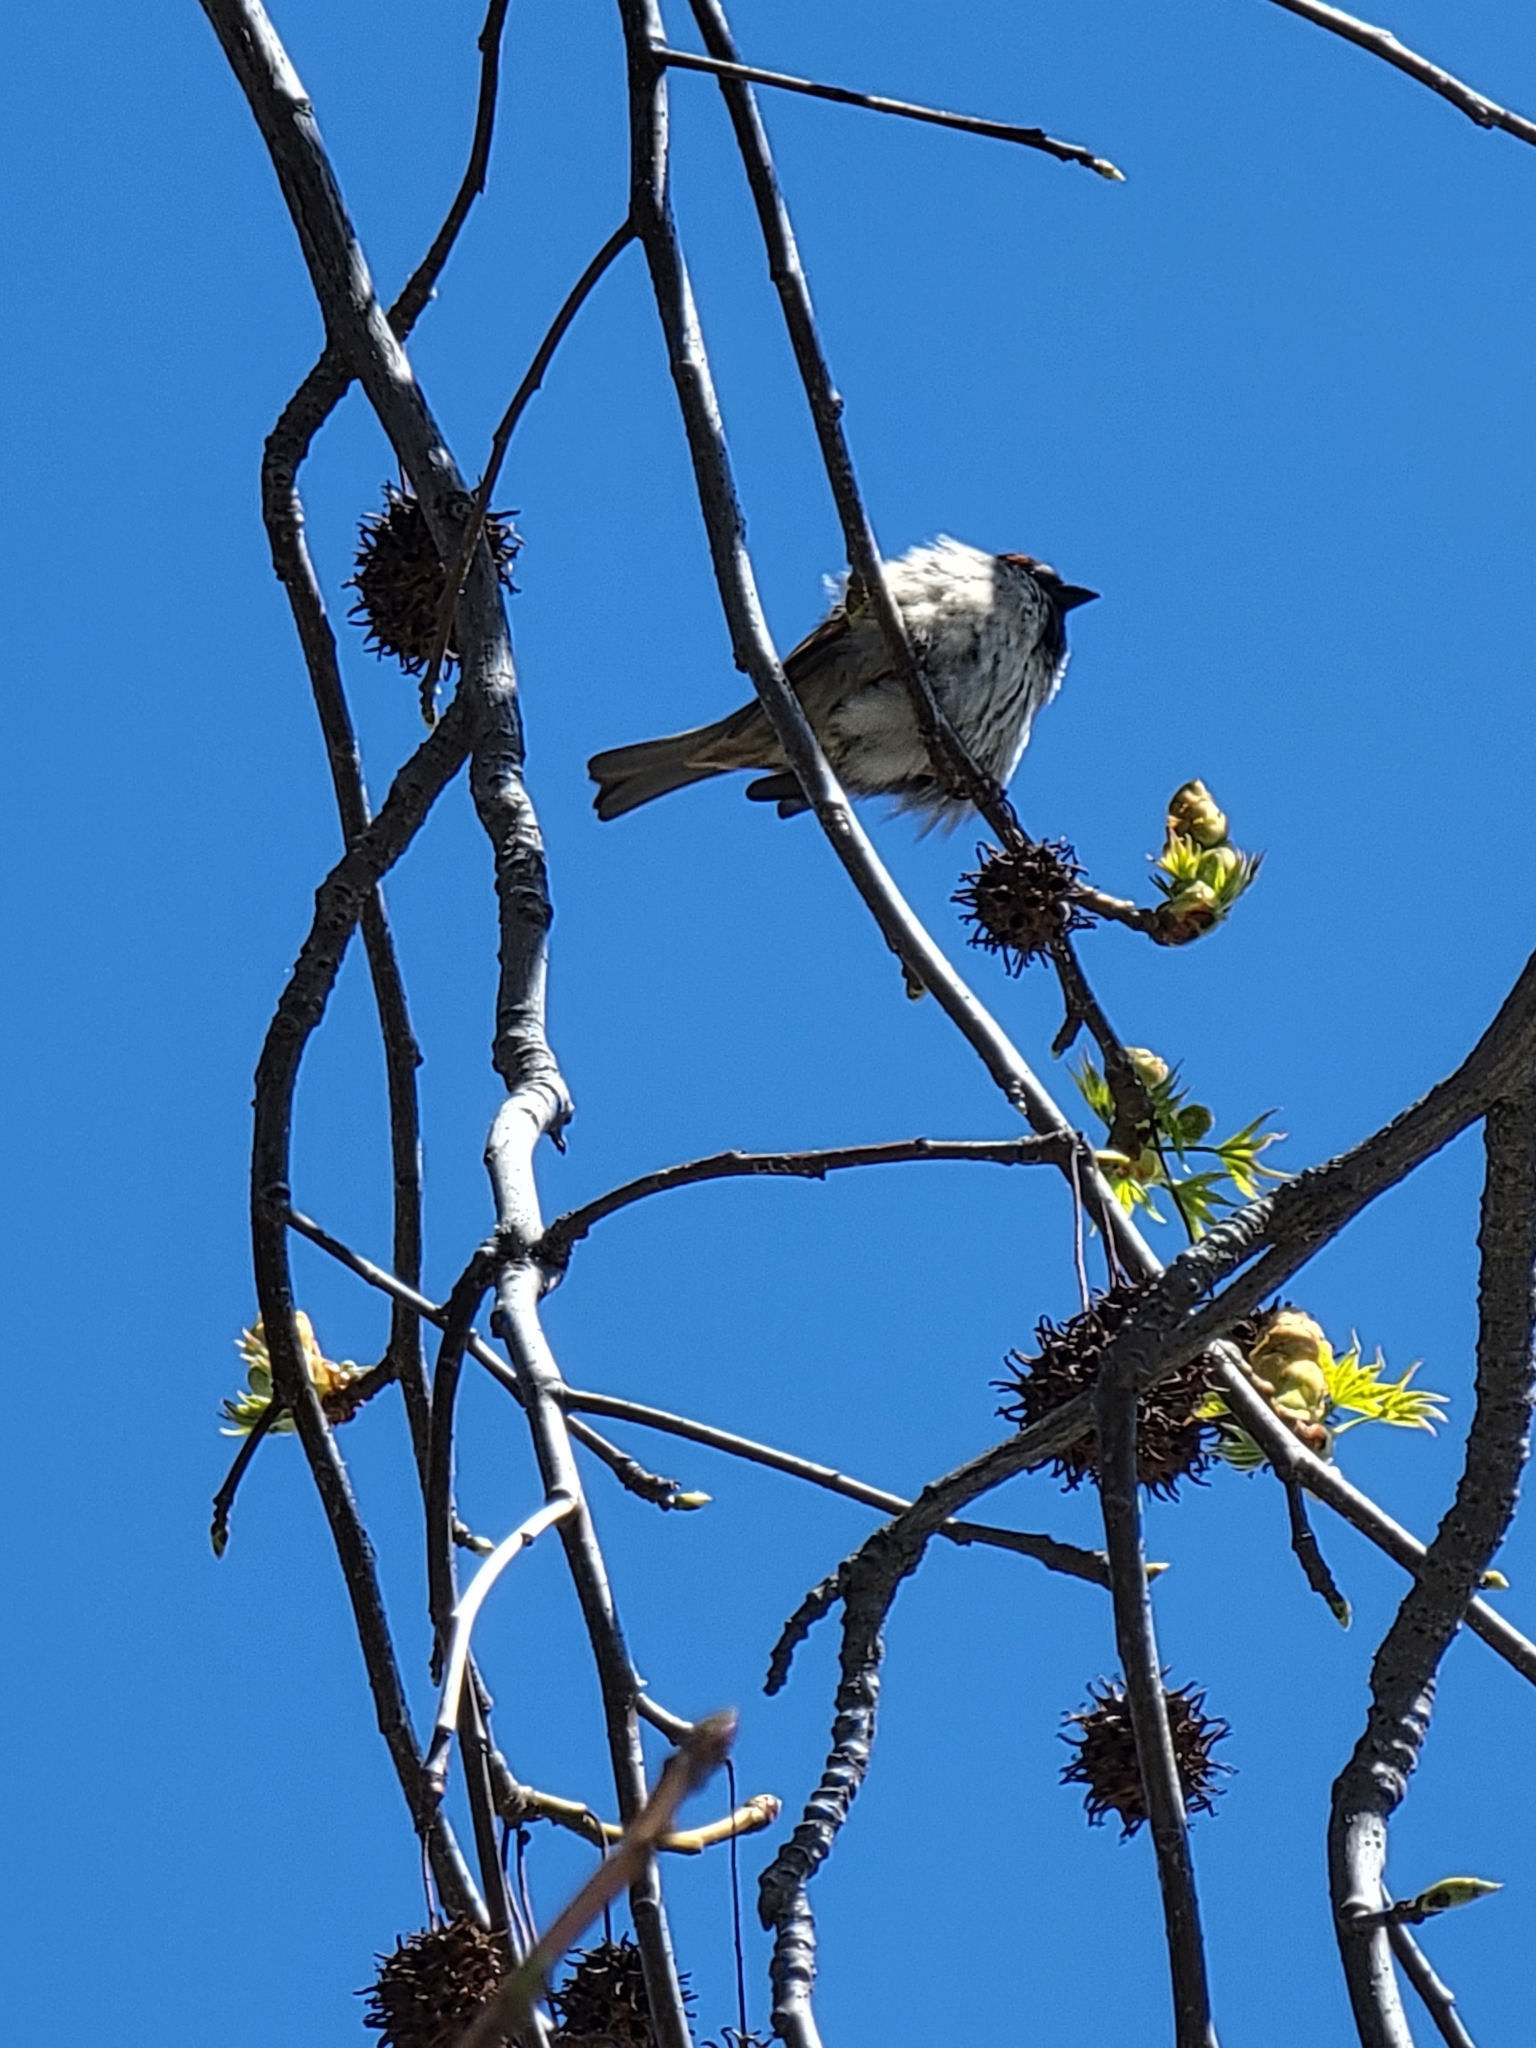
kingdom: Animalia
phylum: Chordata
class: Aves
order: Passeriformes
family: Passeridae
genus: Passer
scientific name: Passer domesticus
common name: House sparrow
